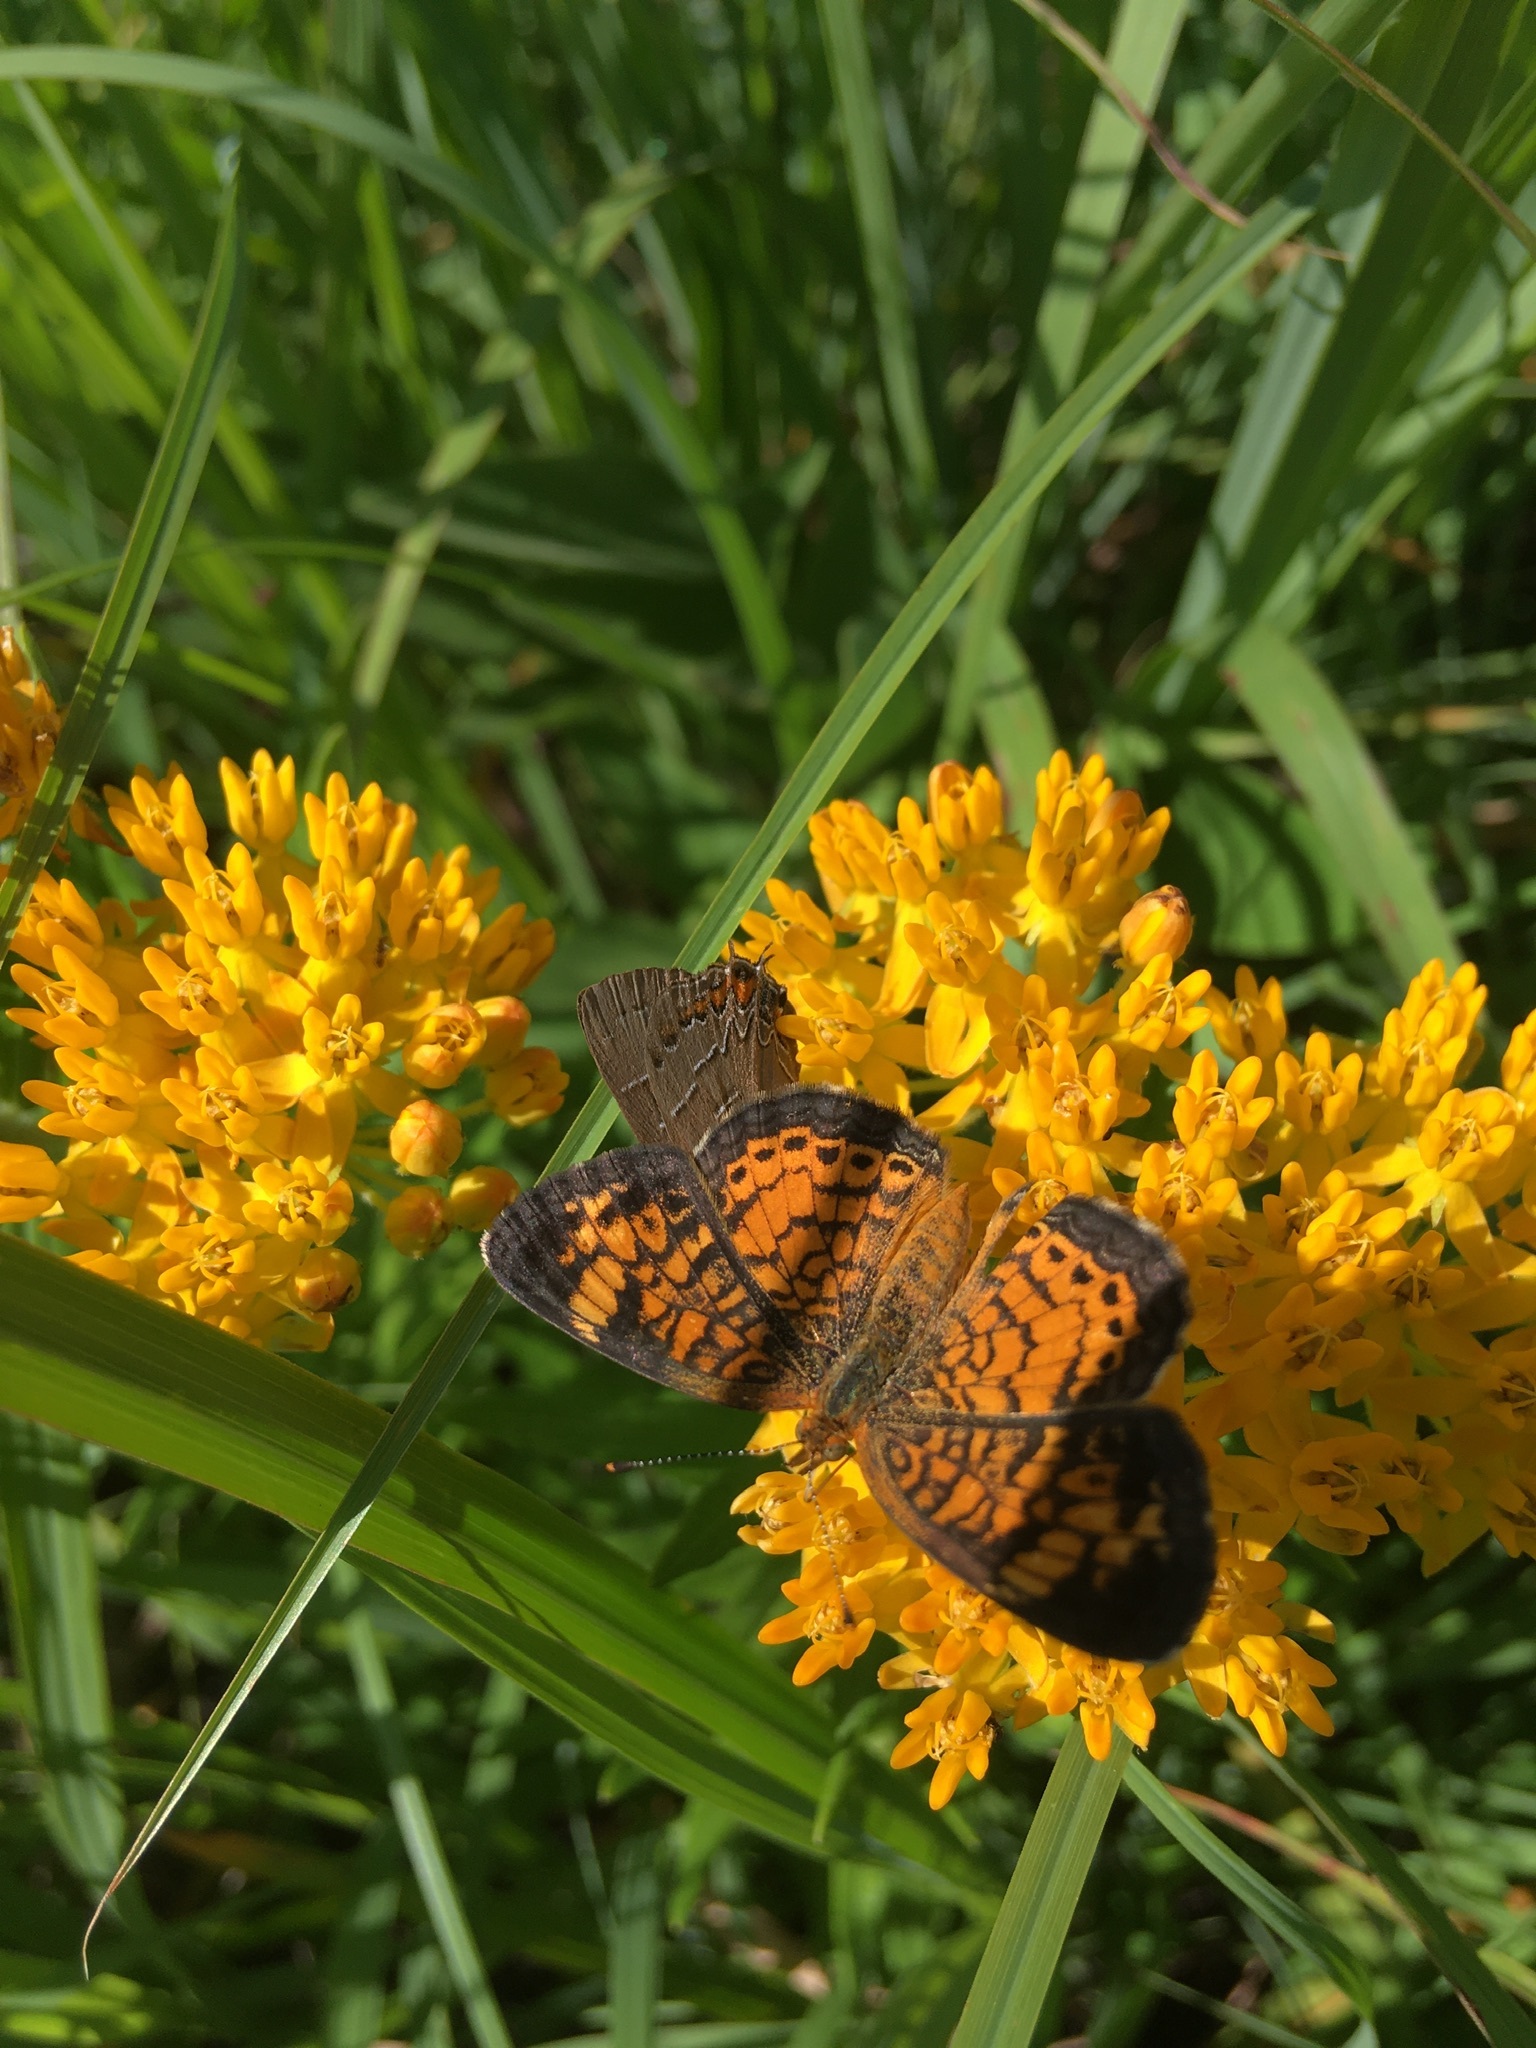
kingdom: Animalia
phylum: Arthropoda
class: Insecta
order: Lepidoptera
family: Nymphalidae
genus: Phyciodes
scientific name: Phyciodes tharos
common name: Pearl crescent
